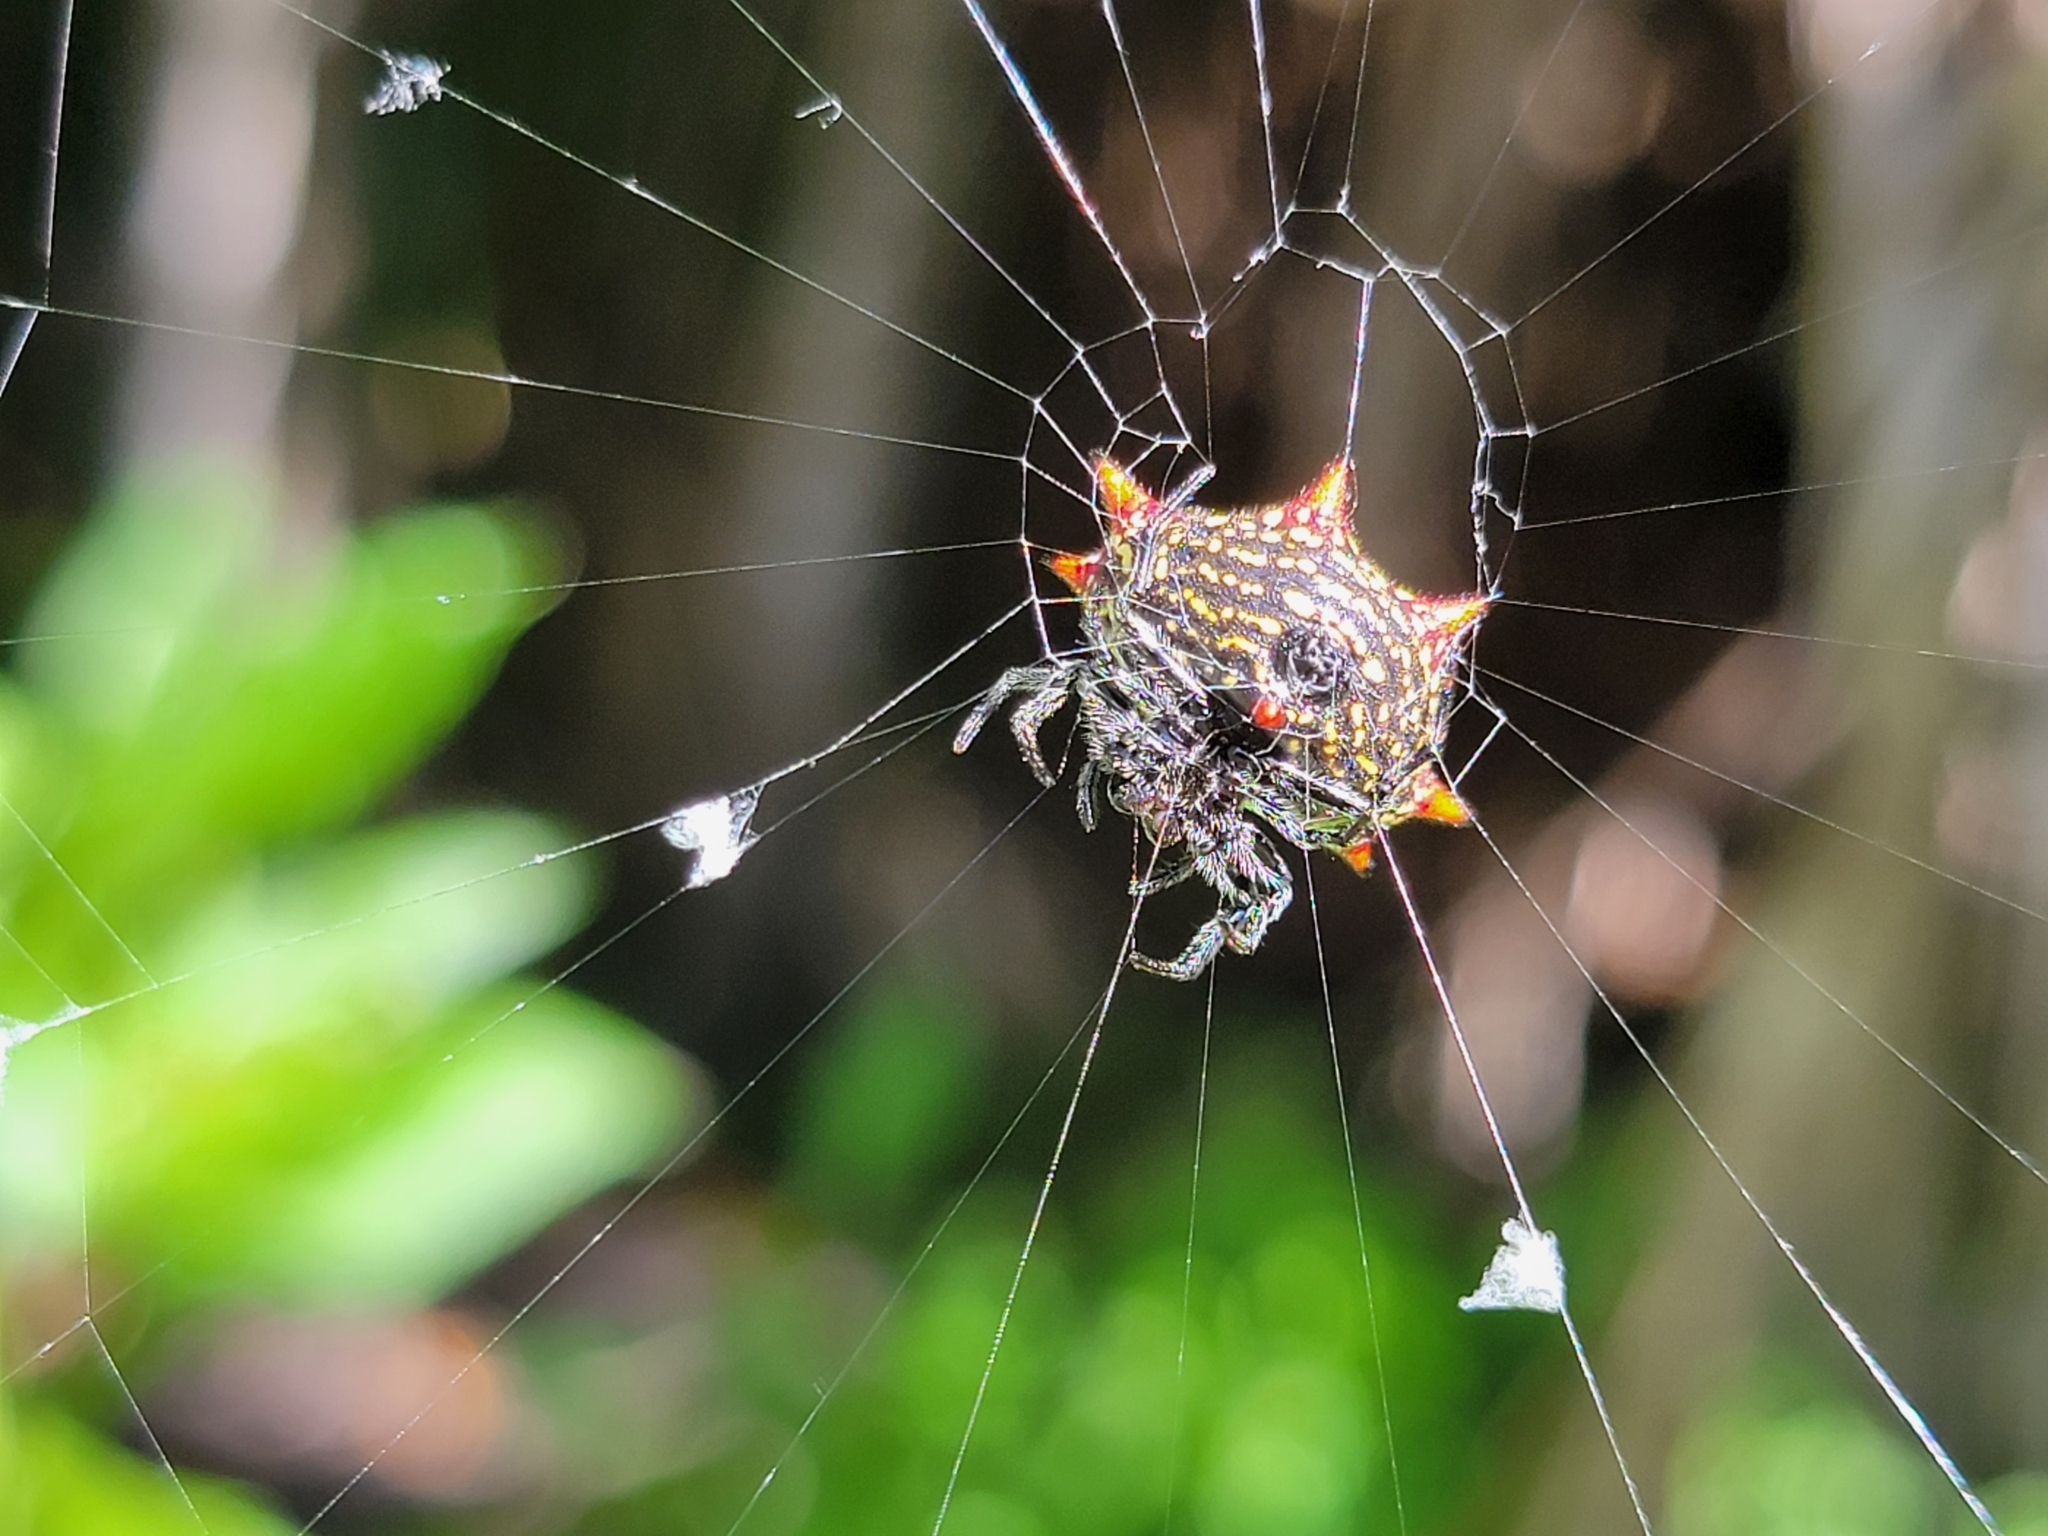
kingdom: Animalia
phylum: Arthropoda
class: Arachnida
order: Araneae
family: Araneidae
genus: Gasteracantha
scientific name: Gasteracantha cancriformis
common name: Orb weavers
